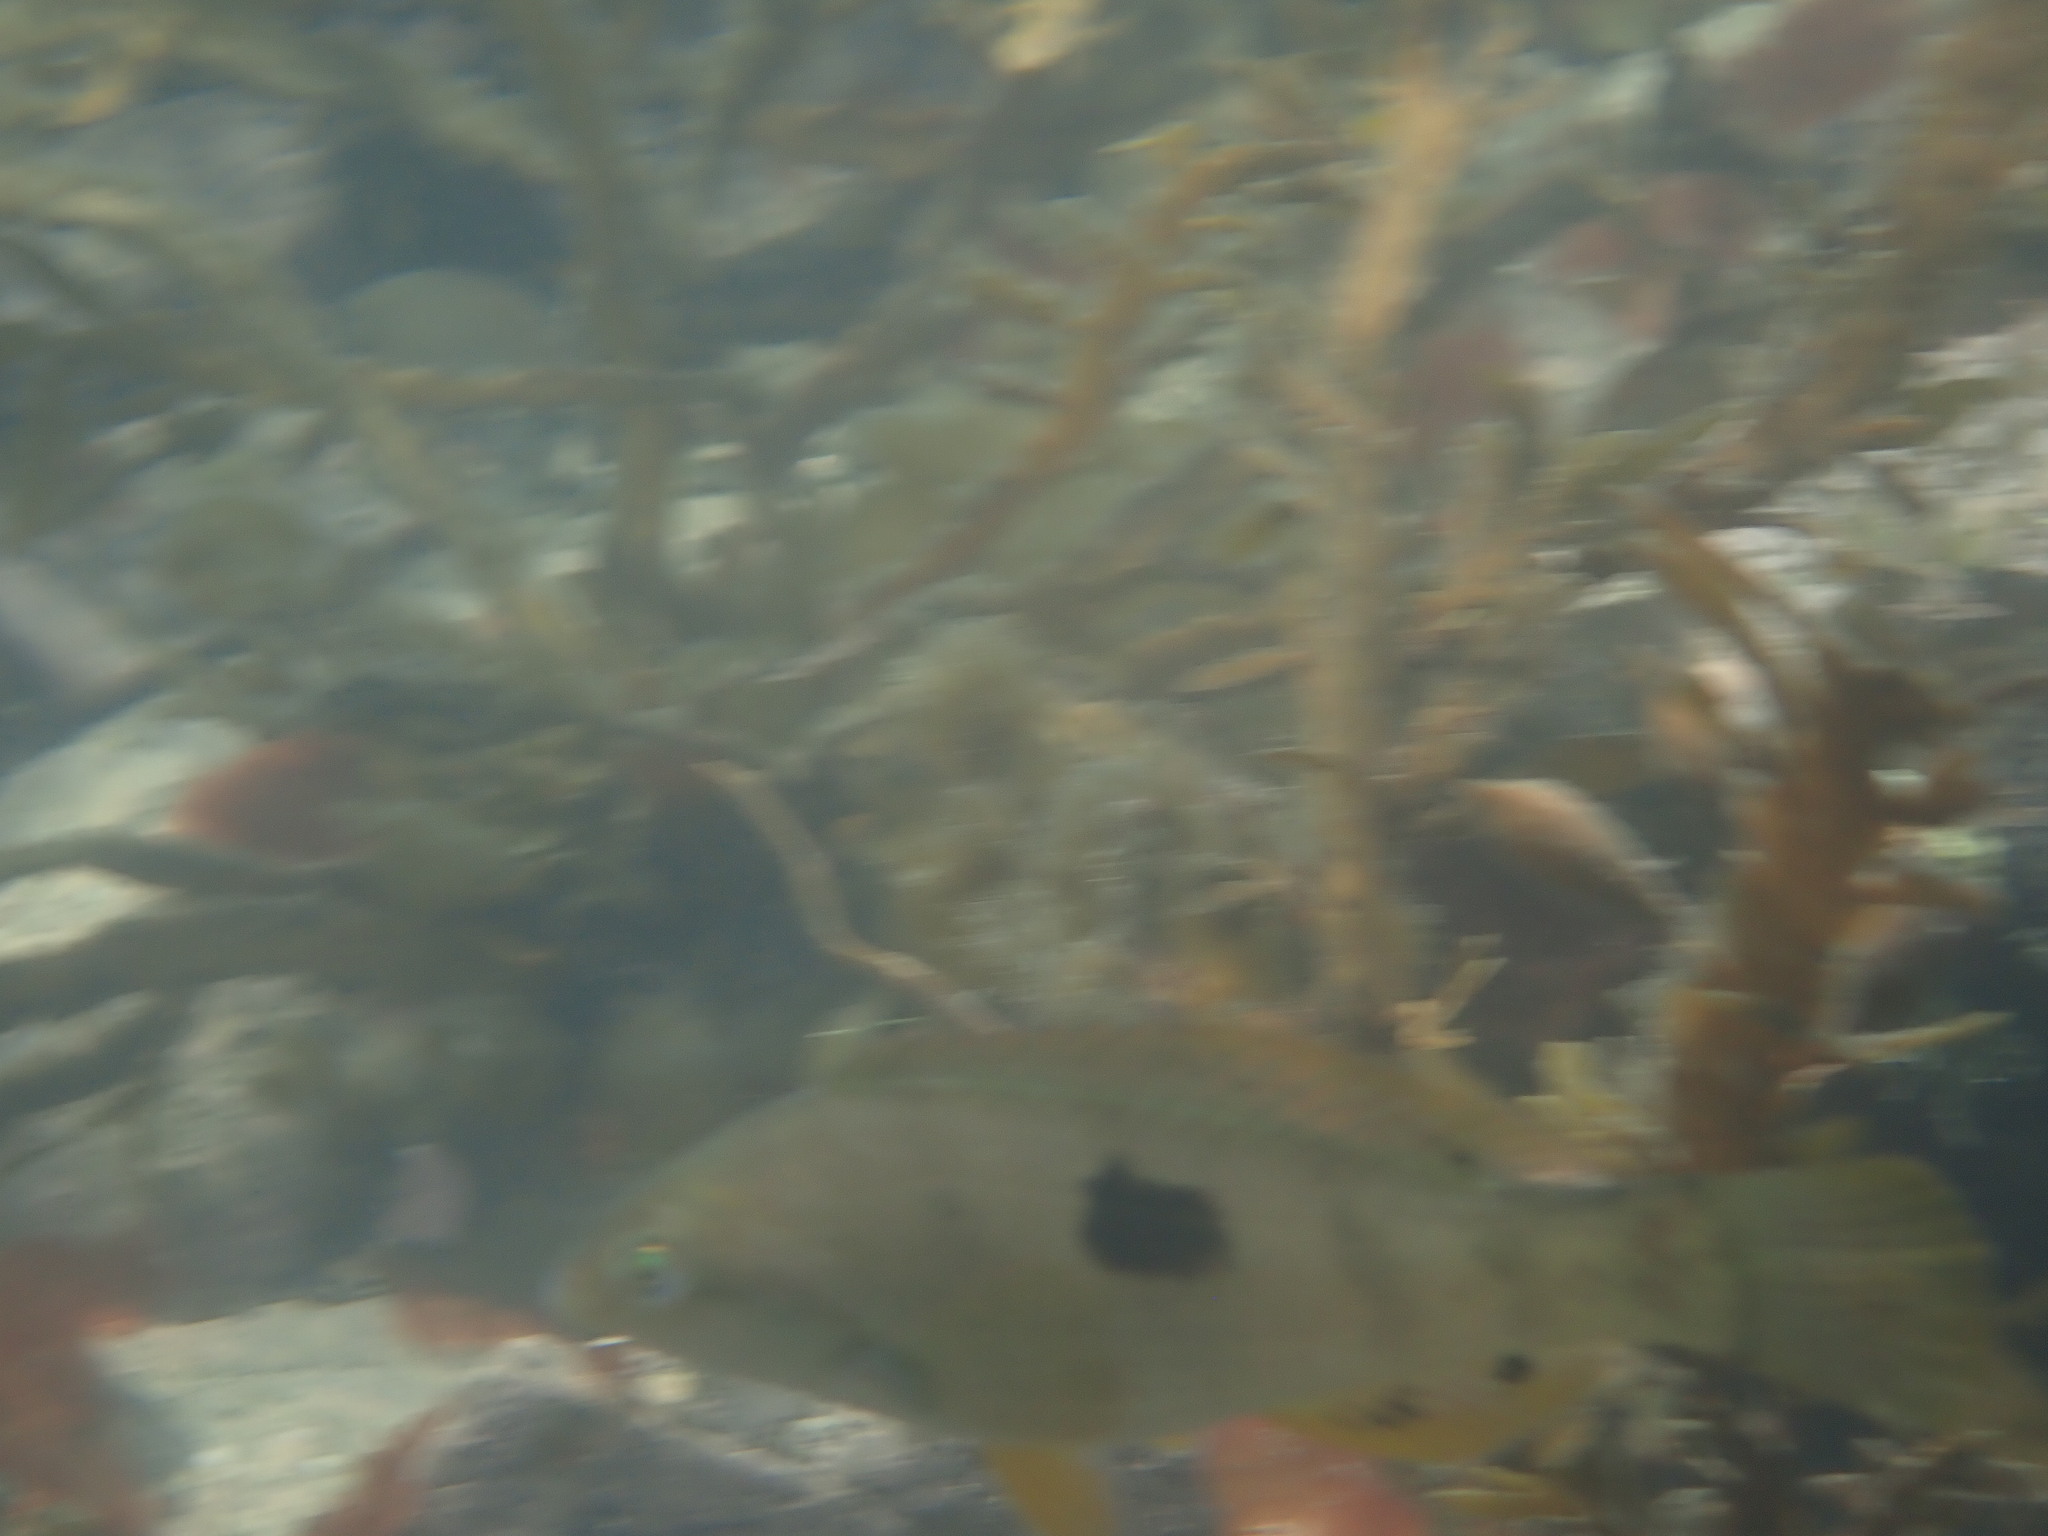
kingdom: Animalia
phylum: Chordata
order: Perciformes
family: Labridae
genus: Notolabrus
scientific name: Notolabrus celidotus
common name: Spotty
